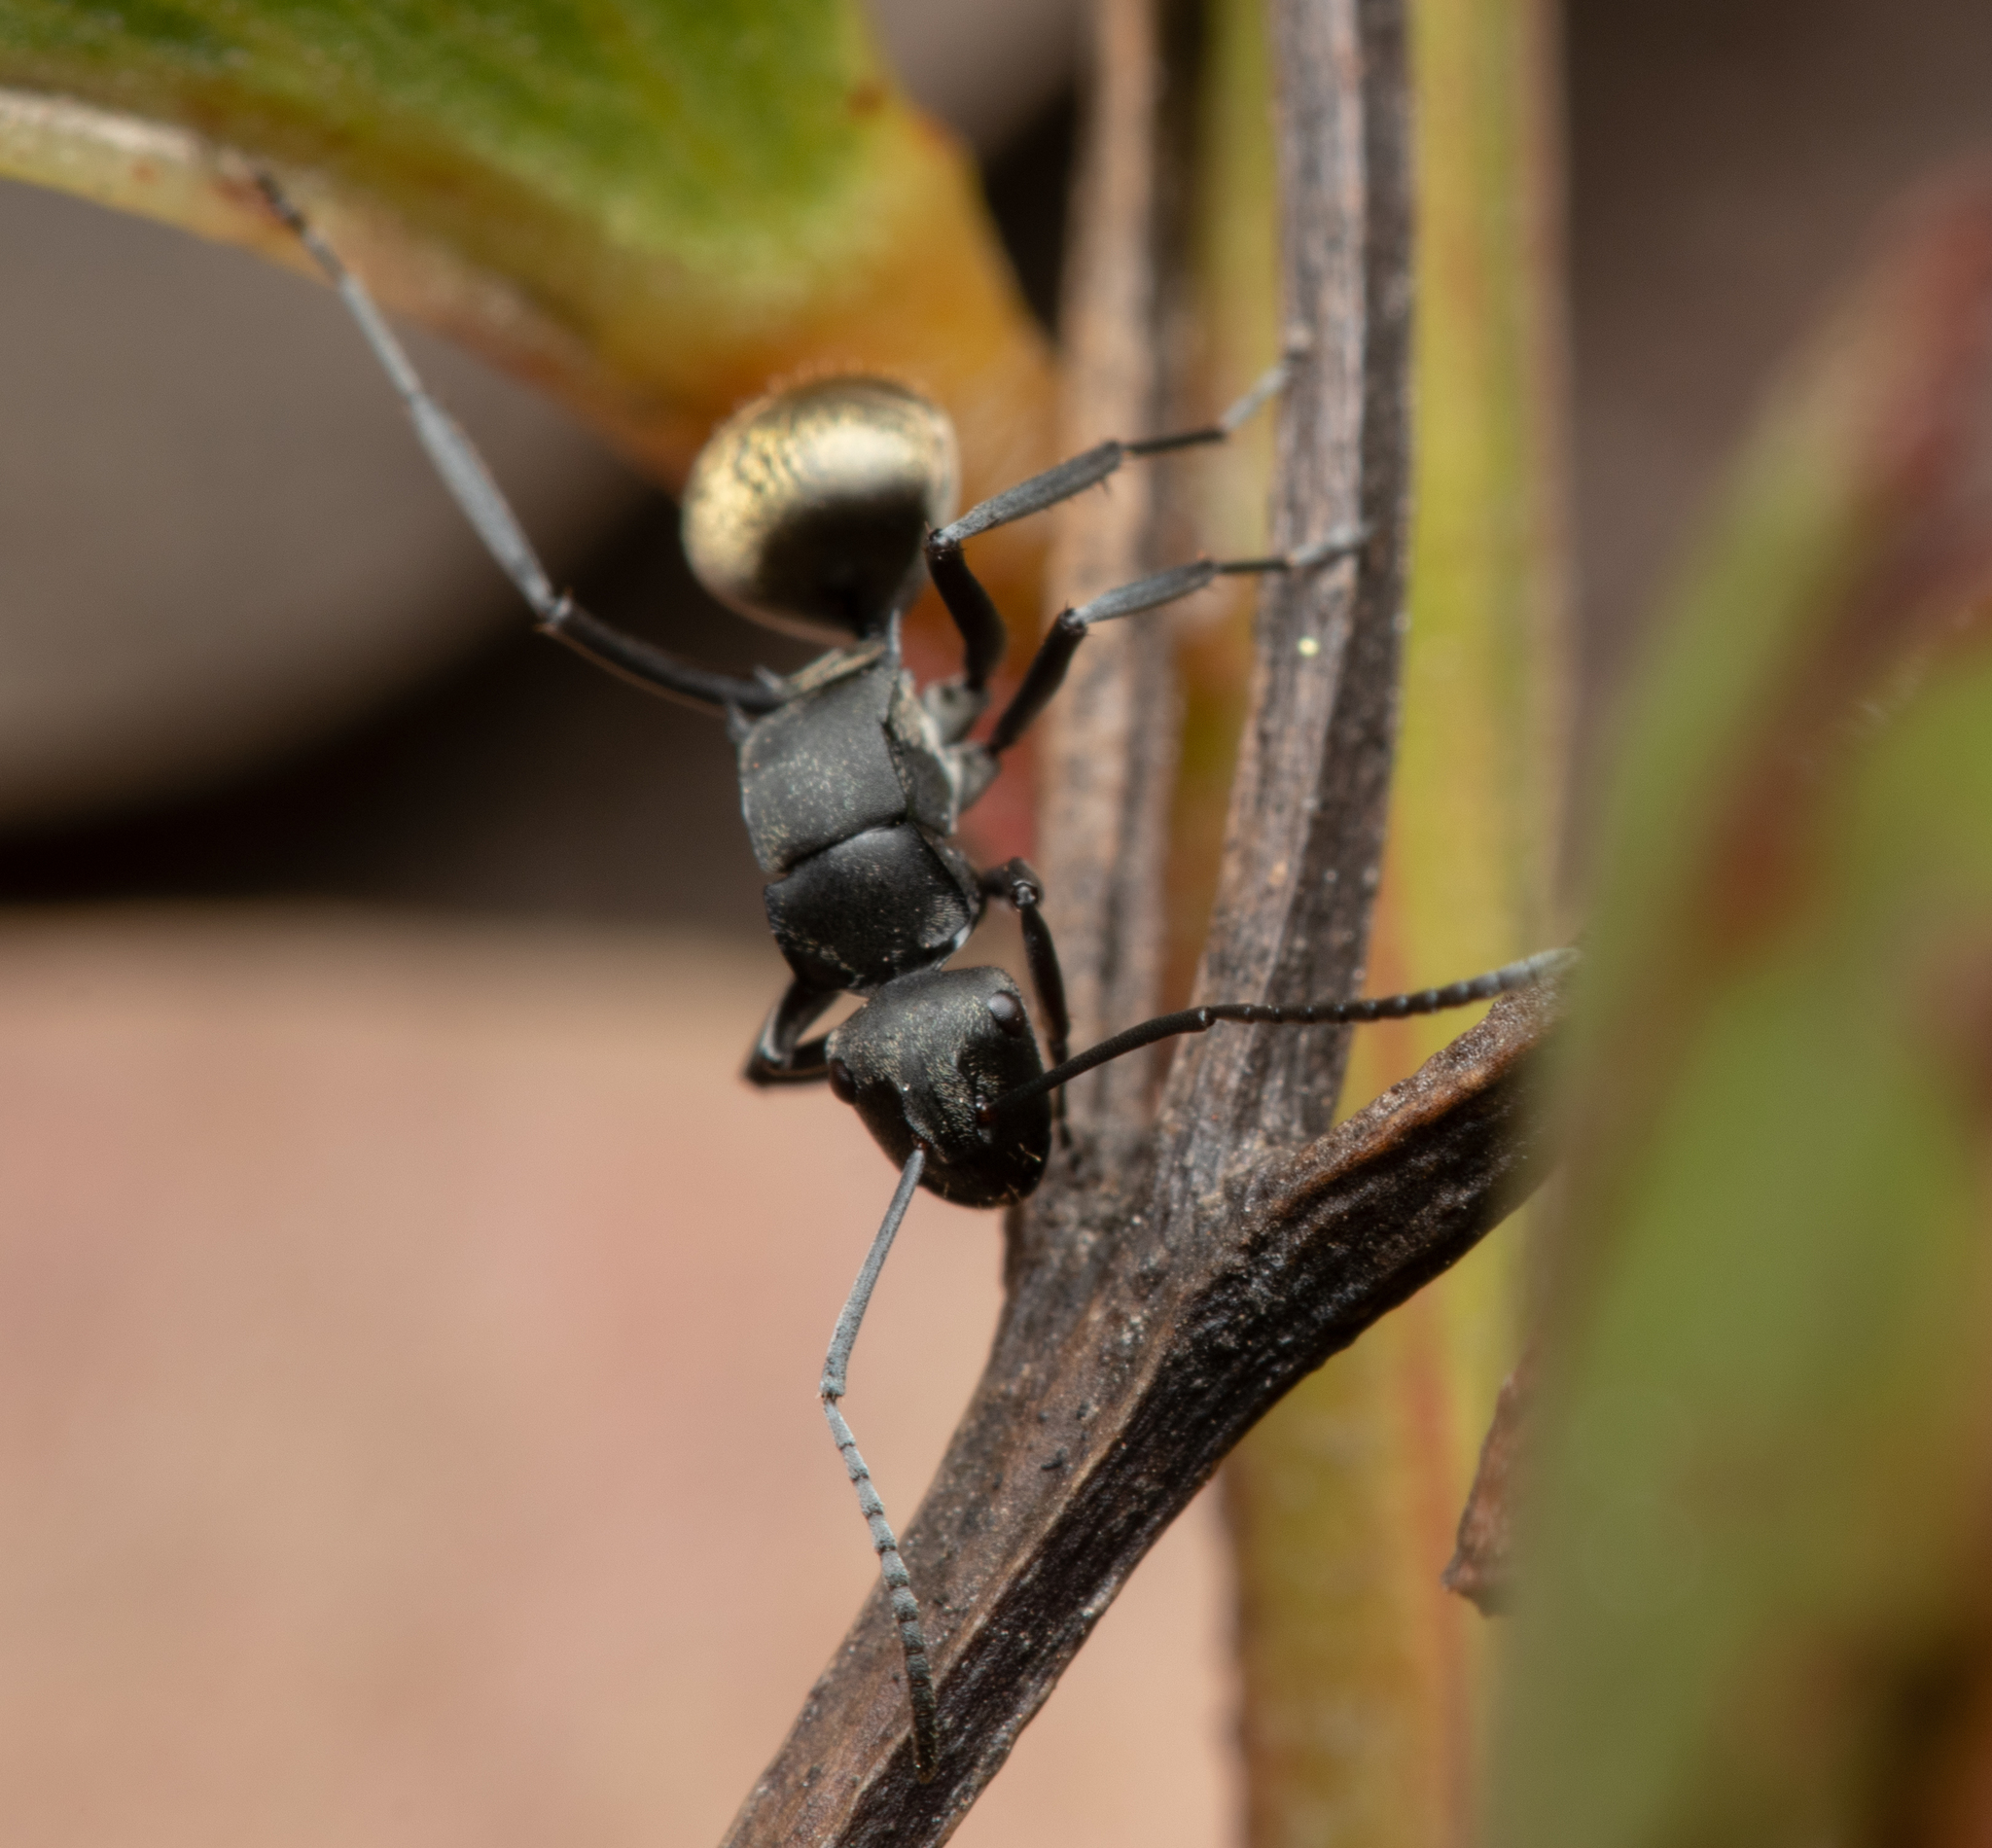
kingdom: Animalia
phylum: Arthropoda
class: Insecta
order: Hymenoptera
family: Formicidae
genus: Polyrhachis
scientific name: Polyrhachis tubifera
